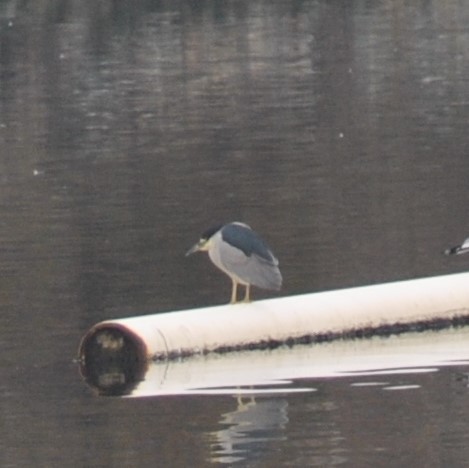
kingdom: Animalia
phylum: Chordata
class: Aves
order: Pelecaniformes
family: Ardeidae
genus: Nycticorax
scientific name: Nycticorax nycticorax
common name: Black-crowned night heron
